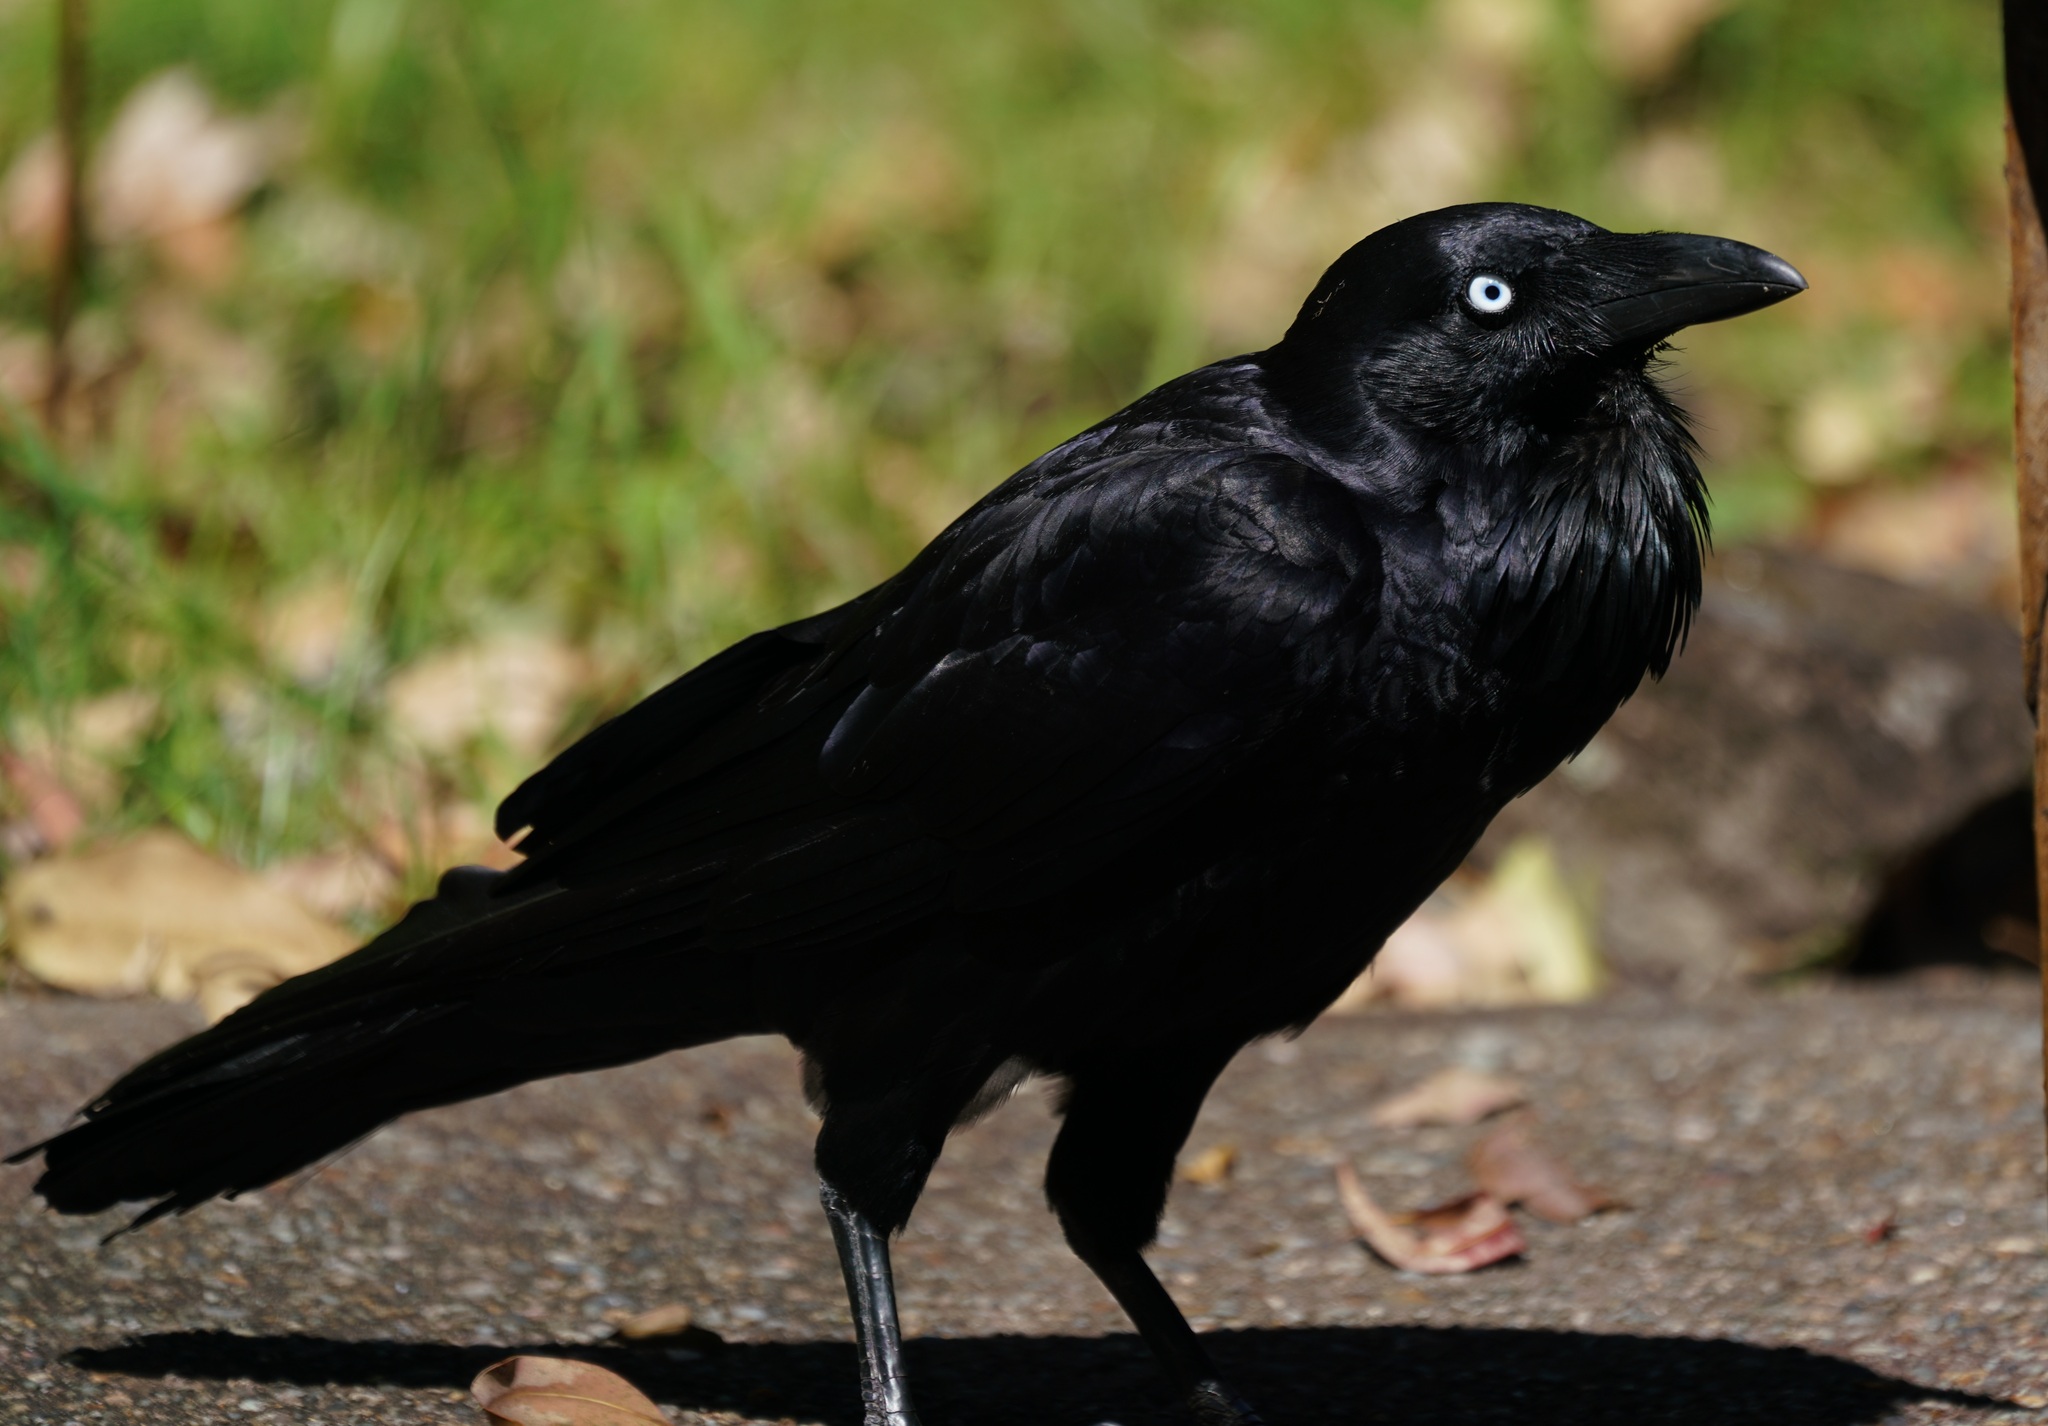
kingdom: Animalia
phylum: Chordata
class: Aves
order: Passeriformes
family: Corvidae
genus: Corvus
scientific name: Corvus coronoides
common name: Australian raven
